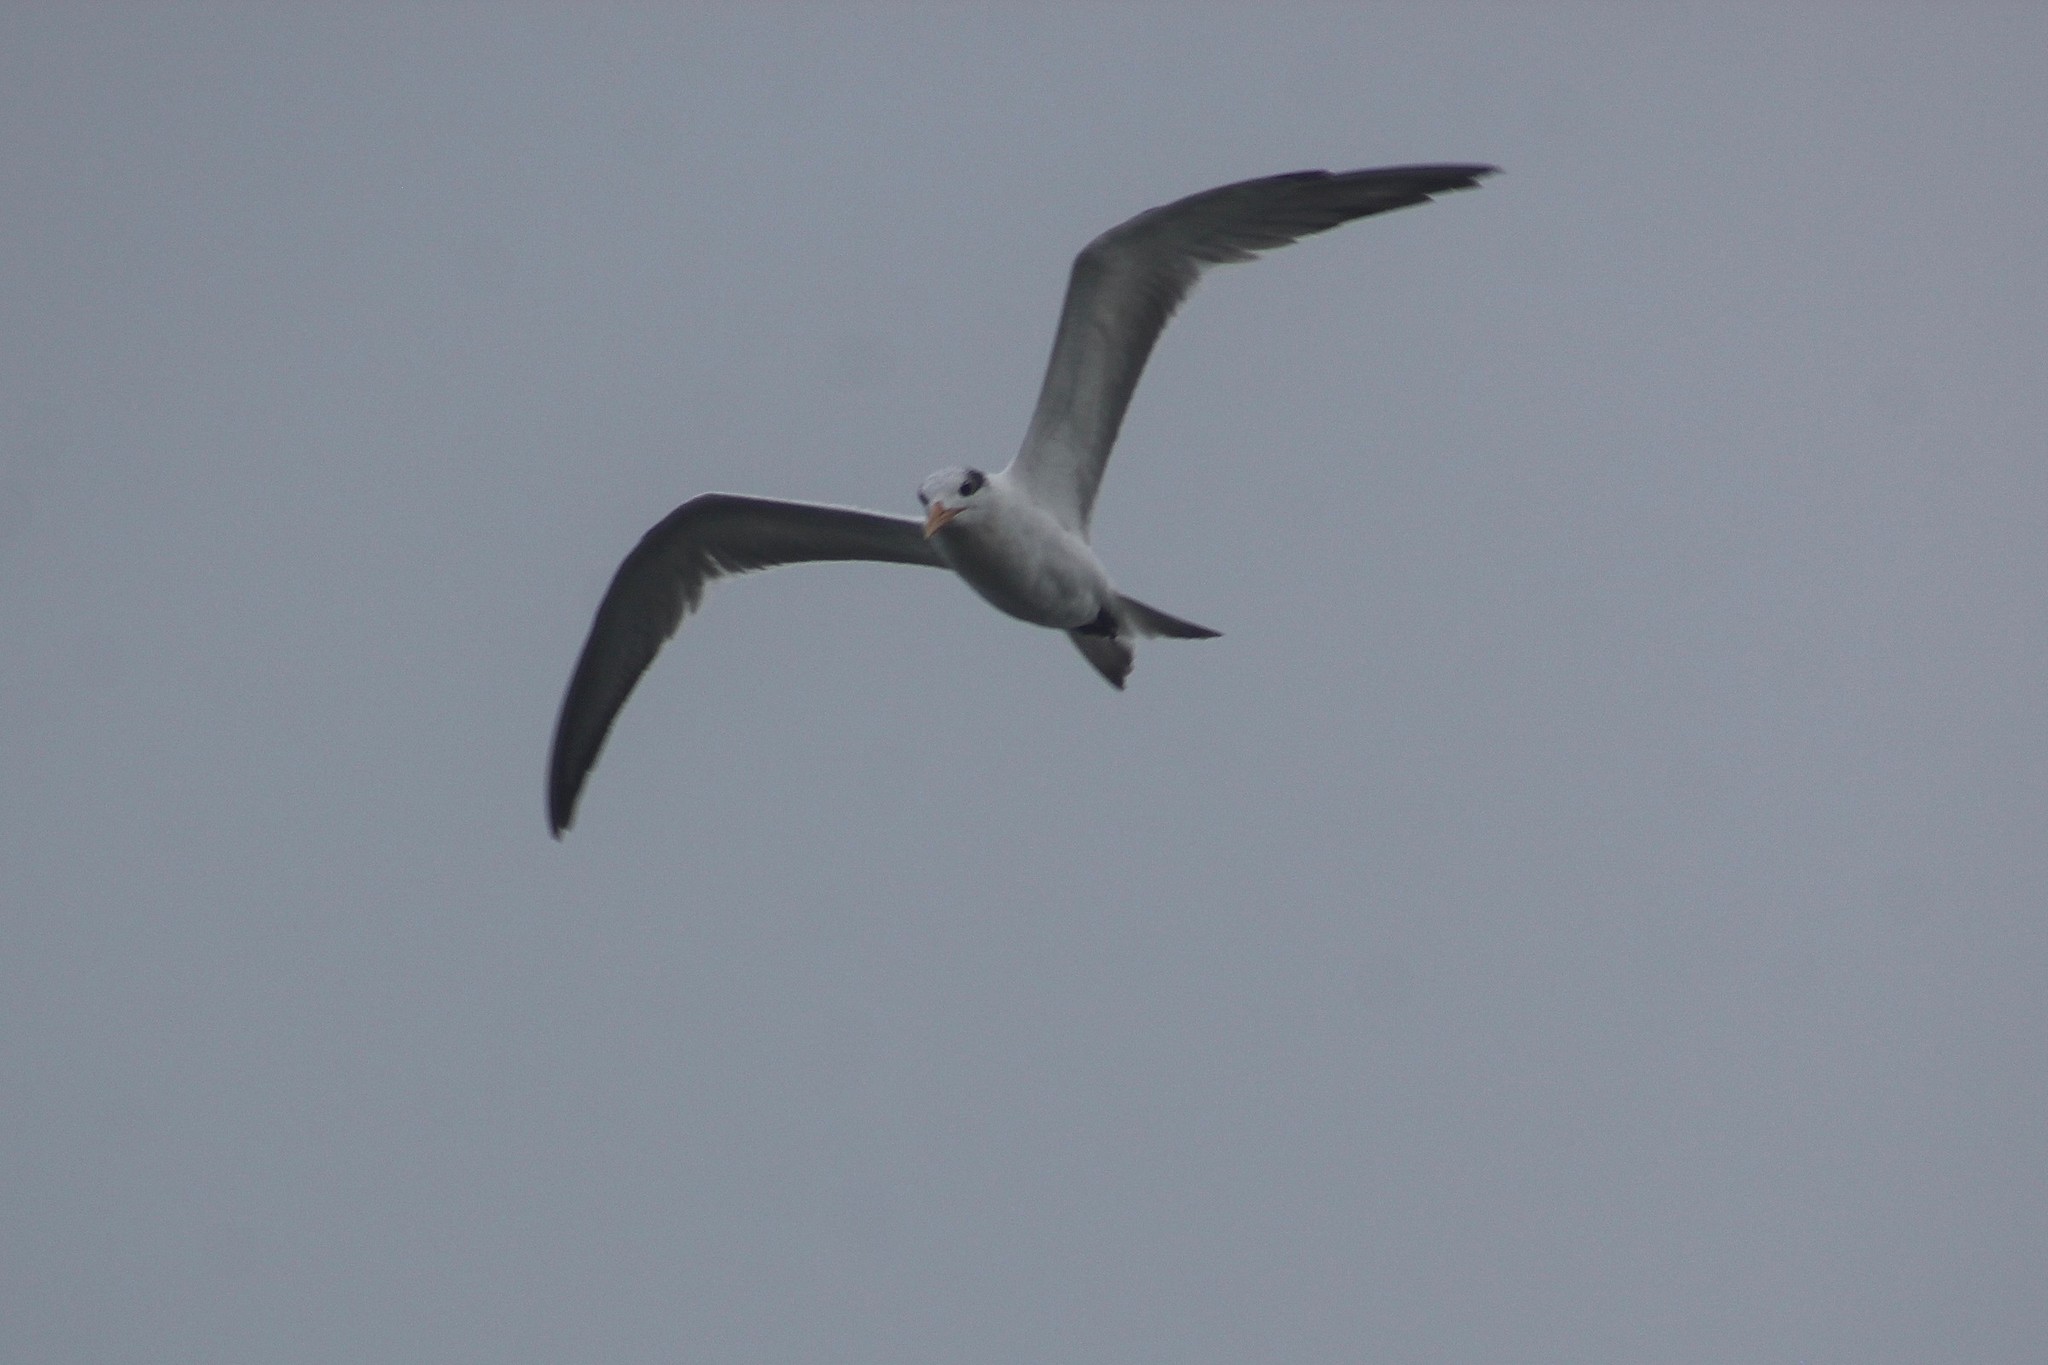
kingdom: Animalia
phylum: Chordata
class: Aves
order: Charadriiformes
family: Laridae
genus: Thalasseus
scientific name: Thalasseus maximus
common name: Royal tern
